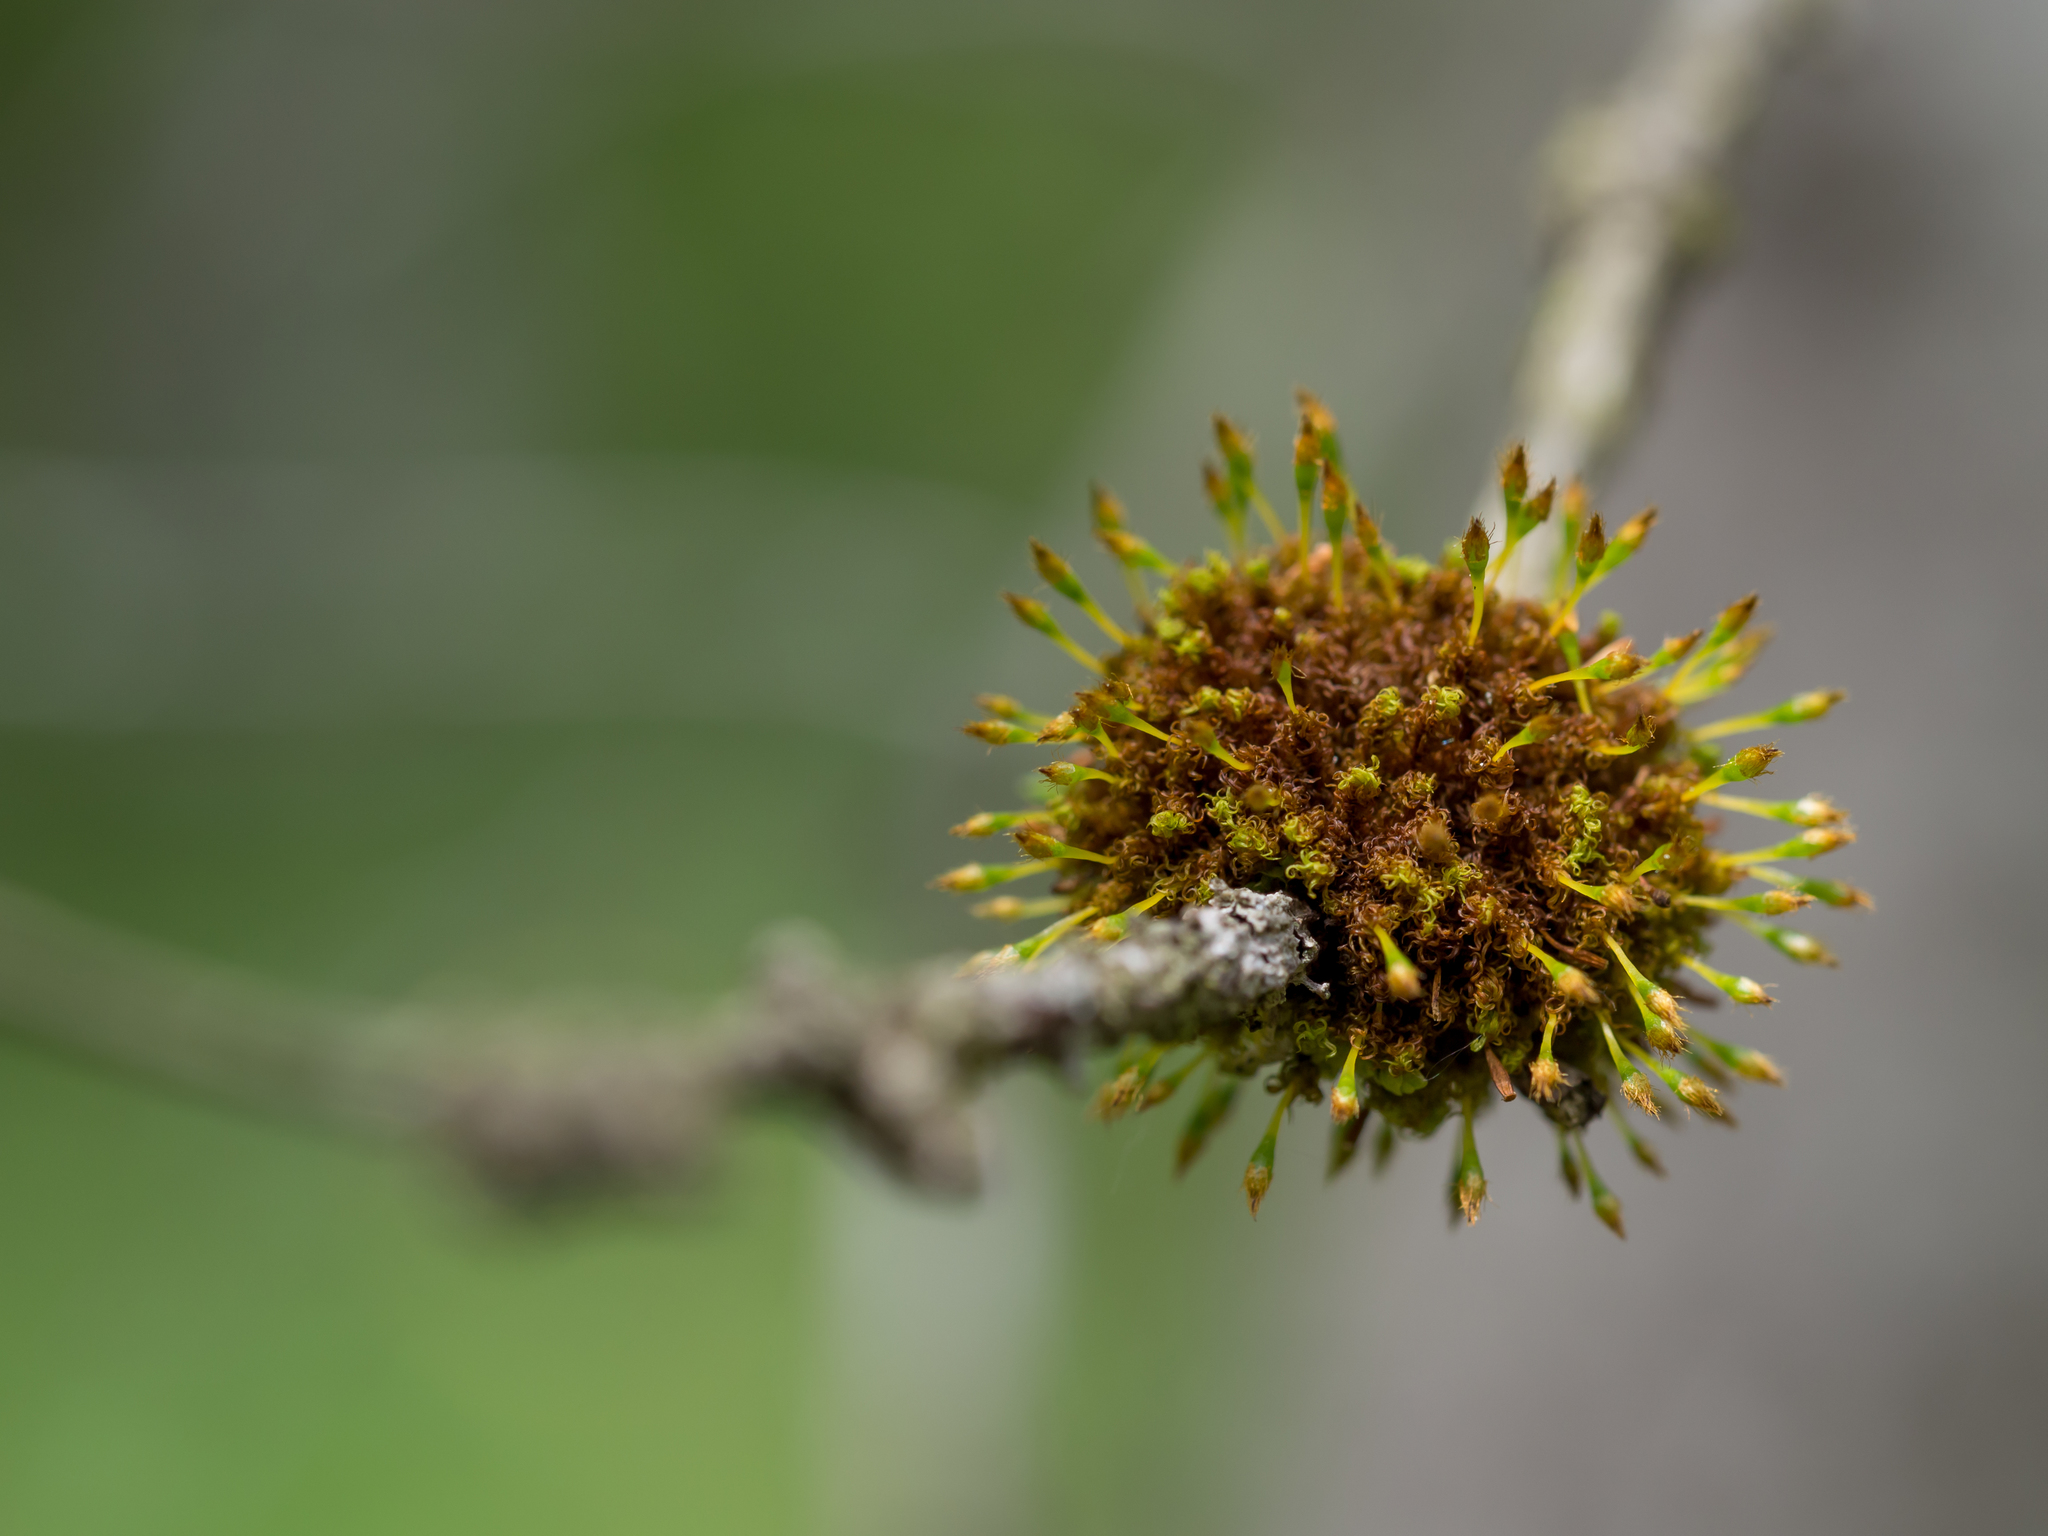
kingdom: Plantae
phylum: Bryophyta
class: Bryopsida
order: Orthotrichales
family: Orthotrichaceae
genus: Ulota
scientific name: Ulota crispa
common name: Crisped pincushion moss
